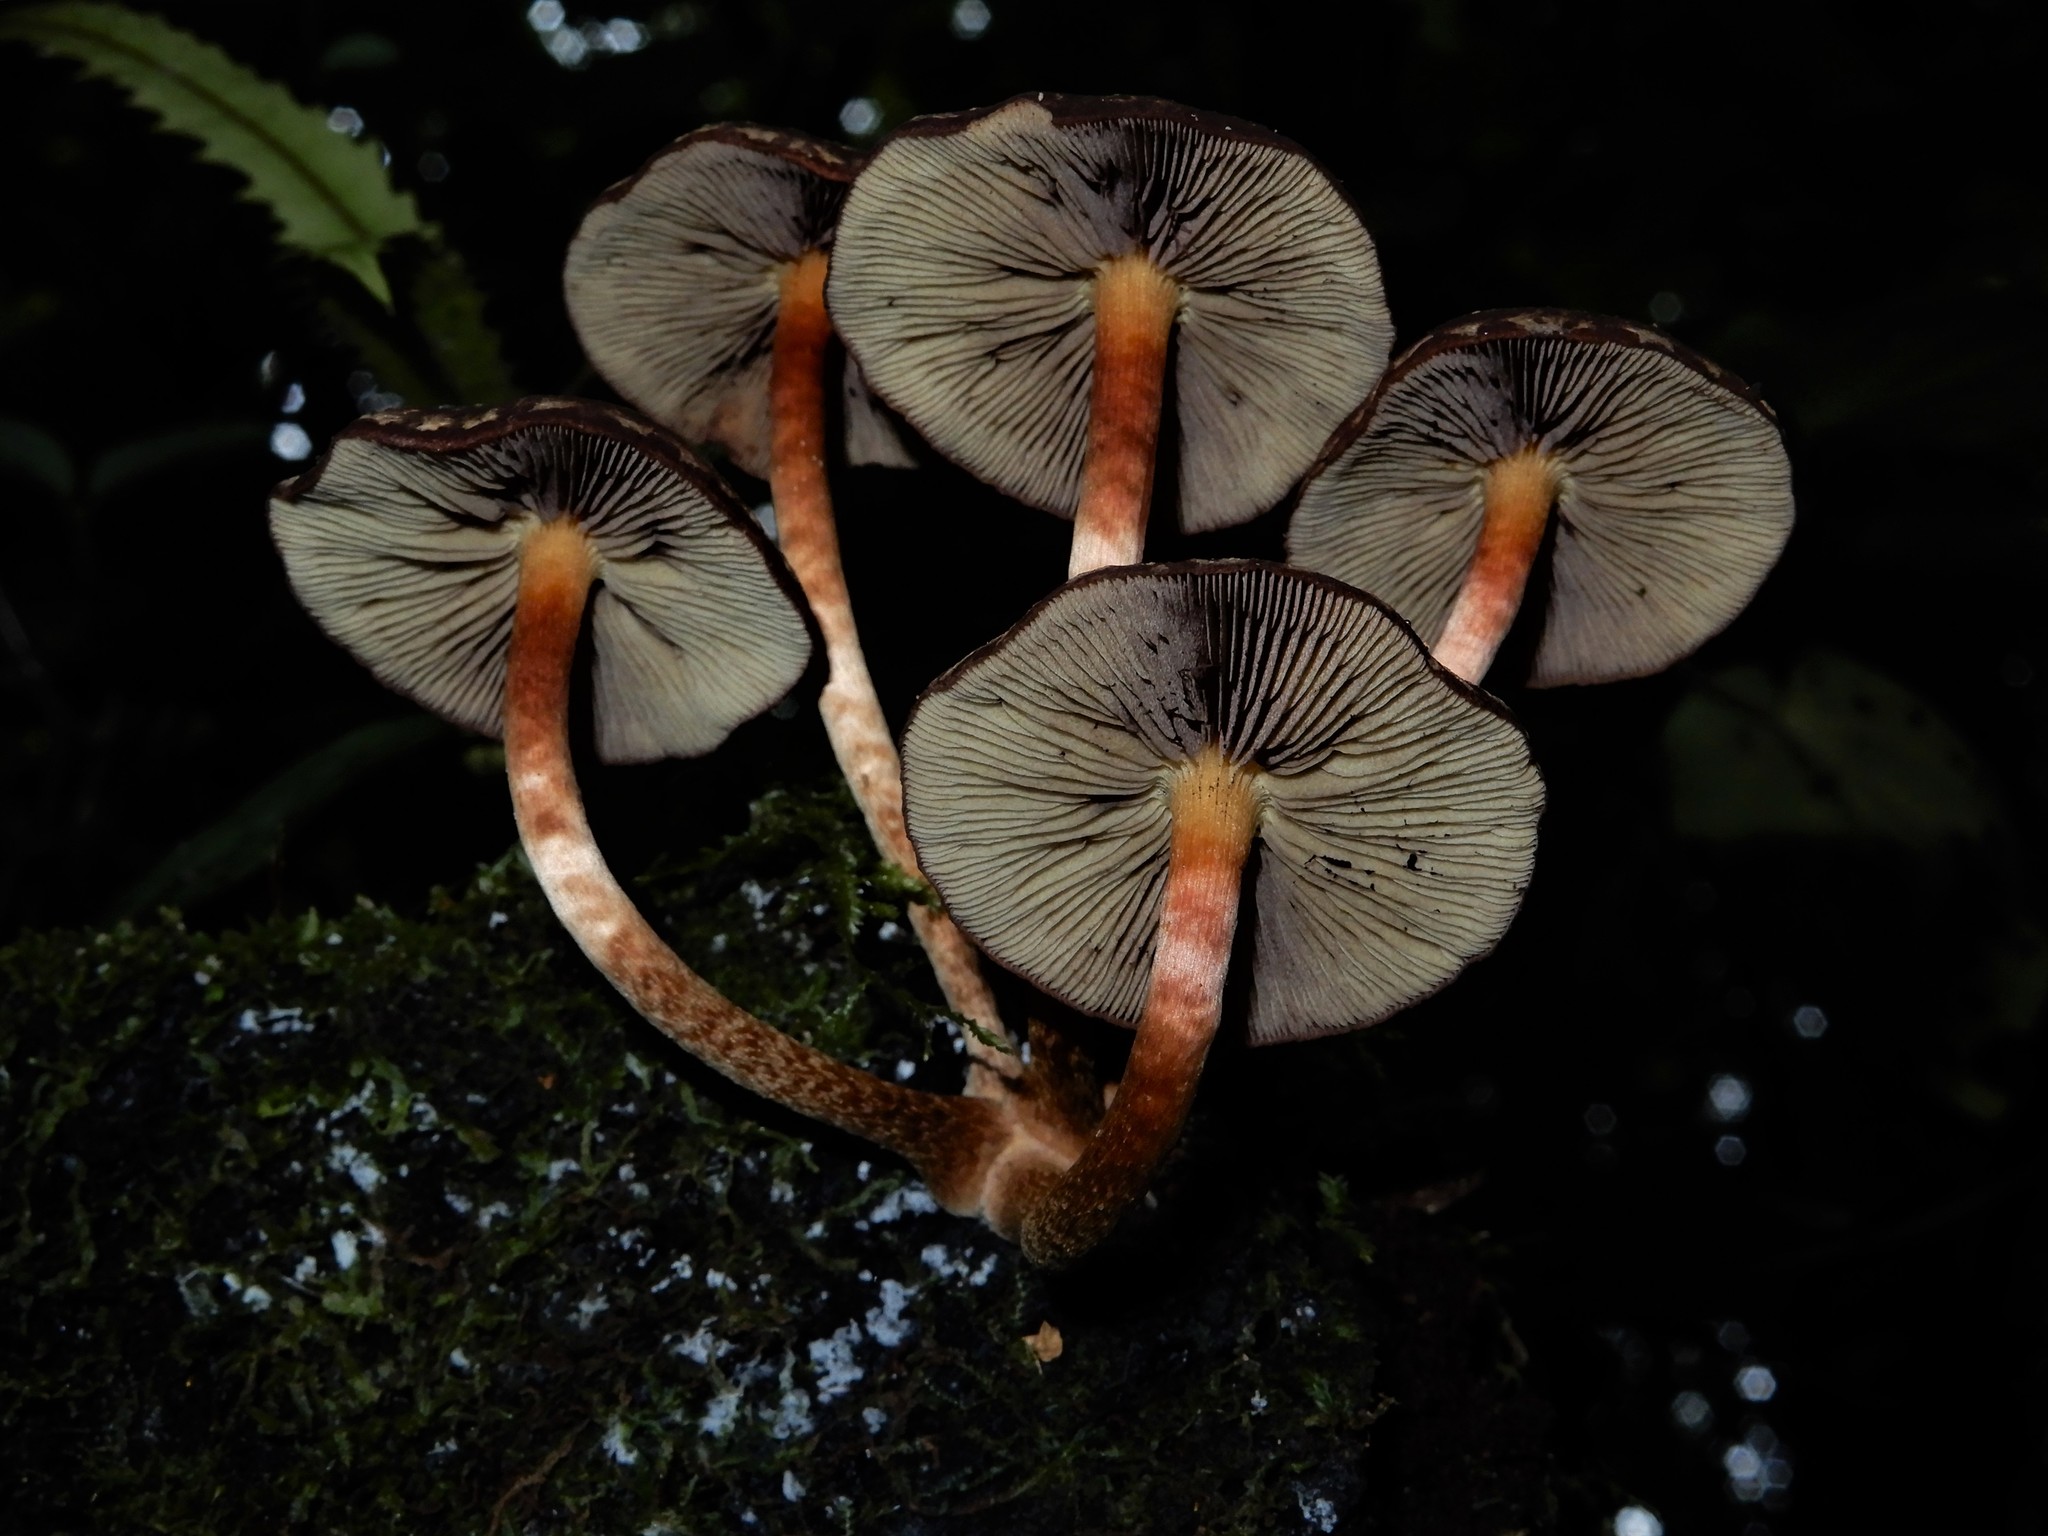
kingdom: Fungi
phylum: Basidiomycota
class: Agaricomycetes
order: Agaricales
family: Strophariaceae
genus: Hypholoma
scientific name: Hypholoma brunneum
